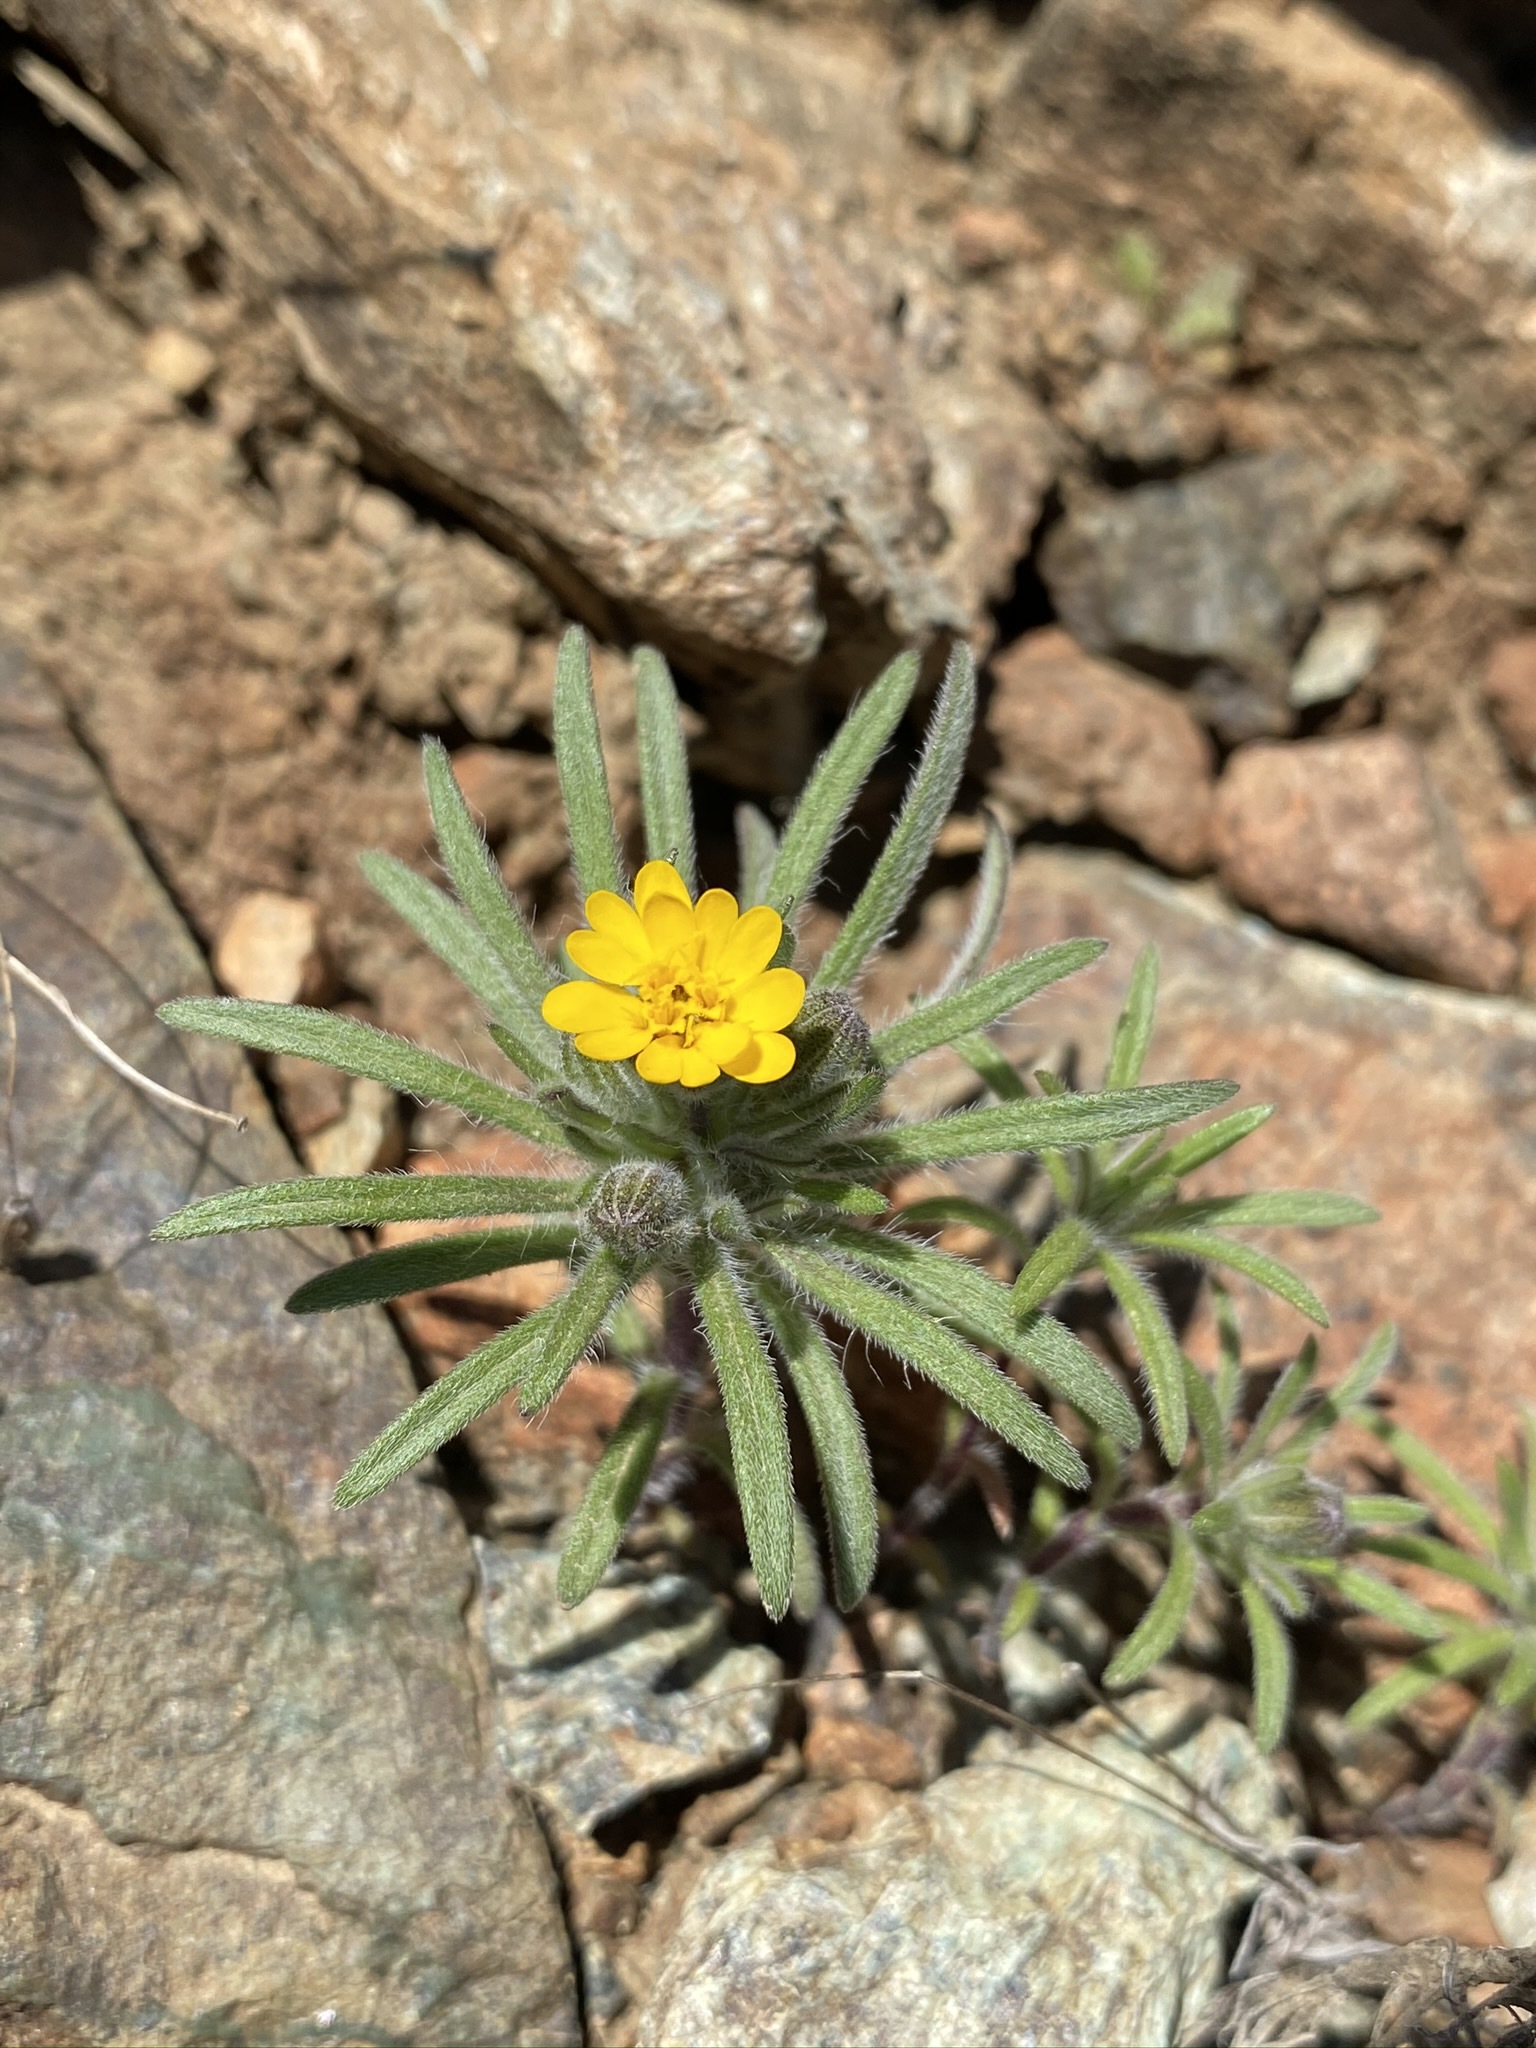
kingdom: Plantae
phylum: Tracheophyta
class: Magnoliopsida
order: Asterales
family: Asteraceae
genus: Harmonia
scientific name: Harmonia hallii
